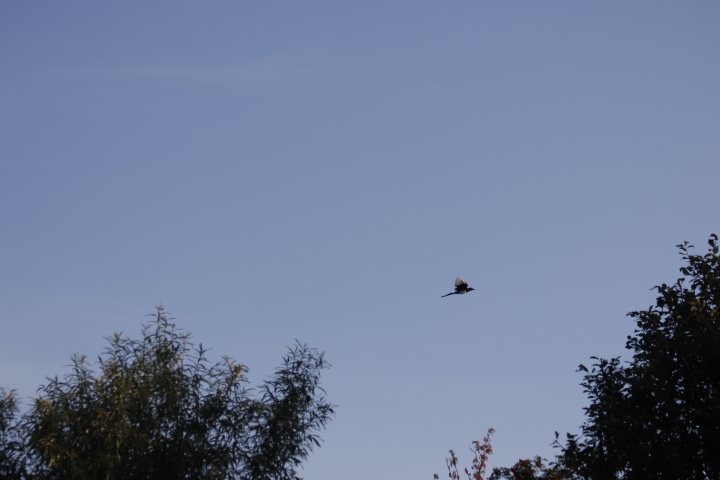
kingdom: Animalia
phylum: Chordata
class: Aves
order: Passeriformes
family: Corvidae
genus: Pica
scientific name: Pica pica
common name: Eurasian magpie
